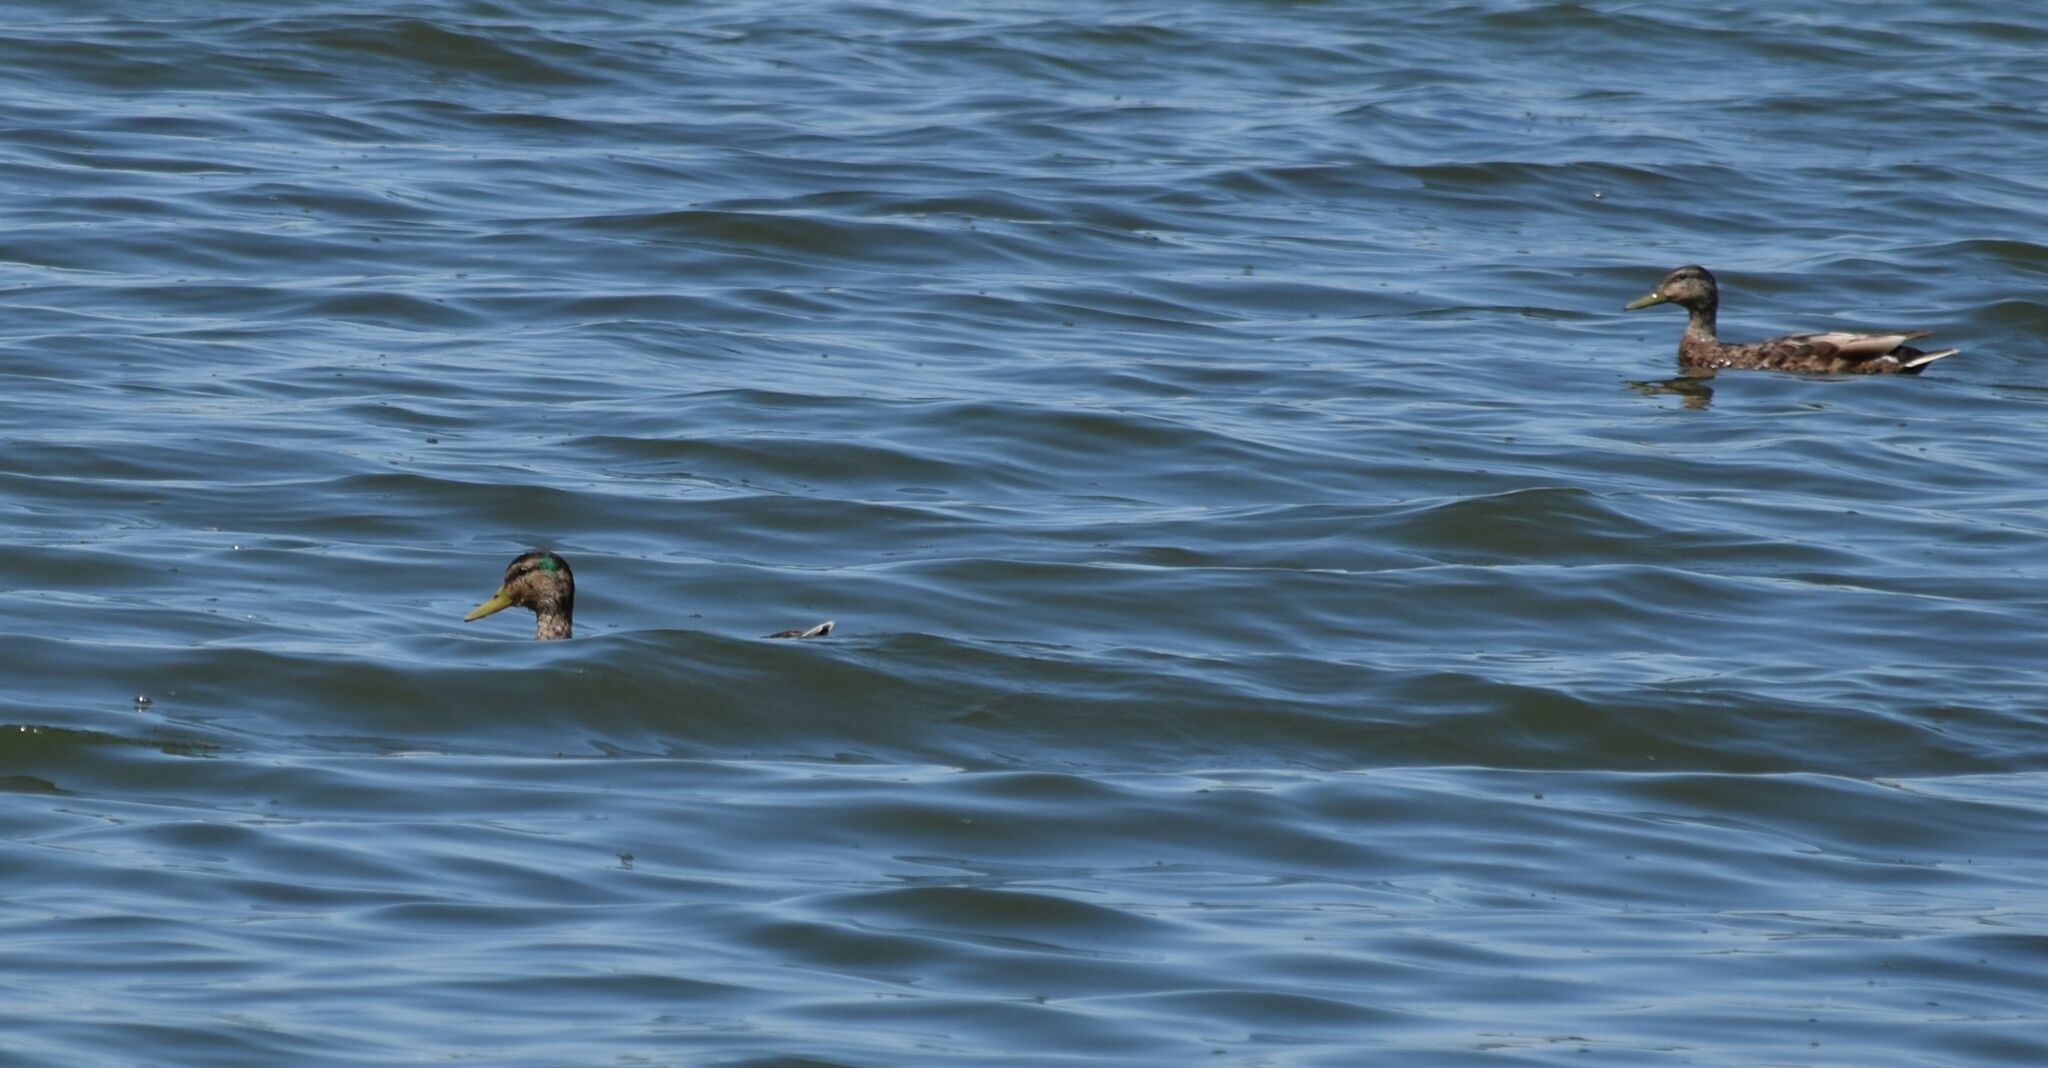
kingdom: Animalia
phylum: Chordata
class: Aves
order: Anseriformes
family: Anatidae
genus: Anas
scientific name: Anas platyrhynchos
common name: Mallard
